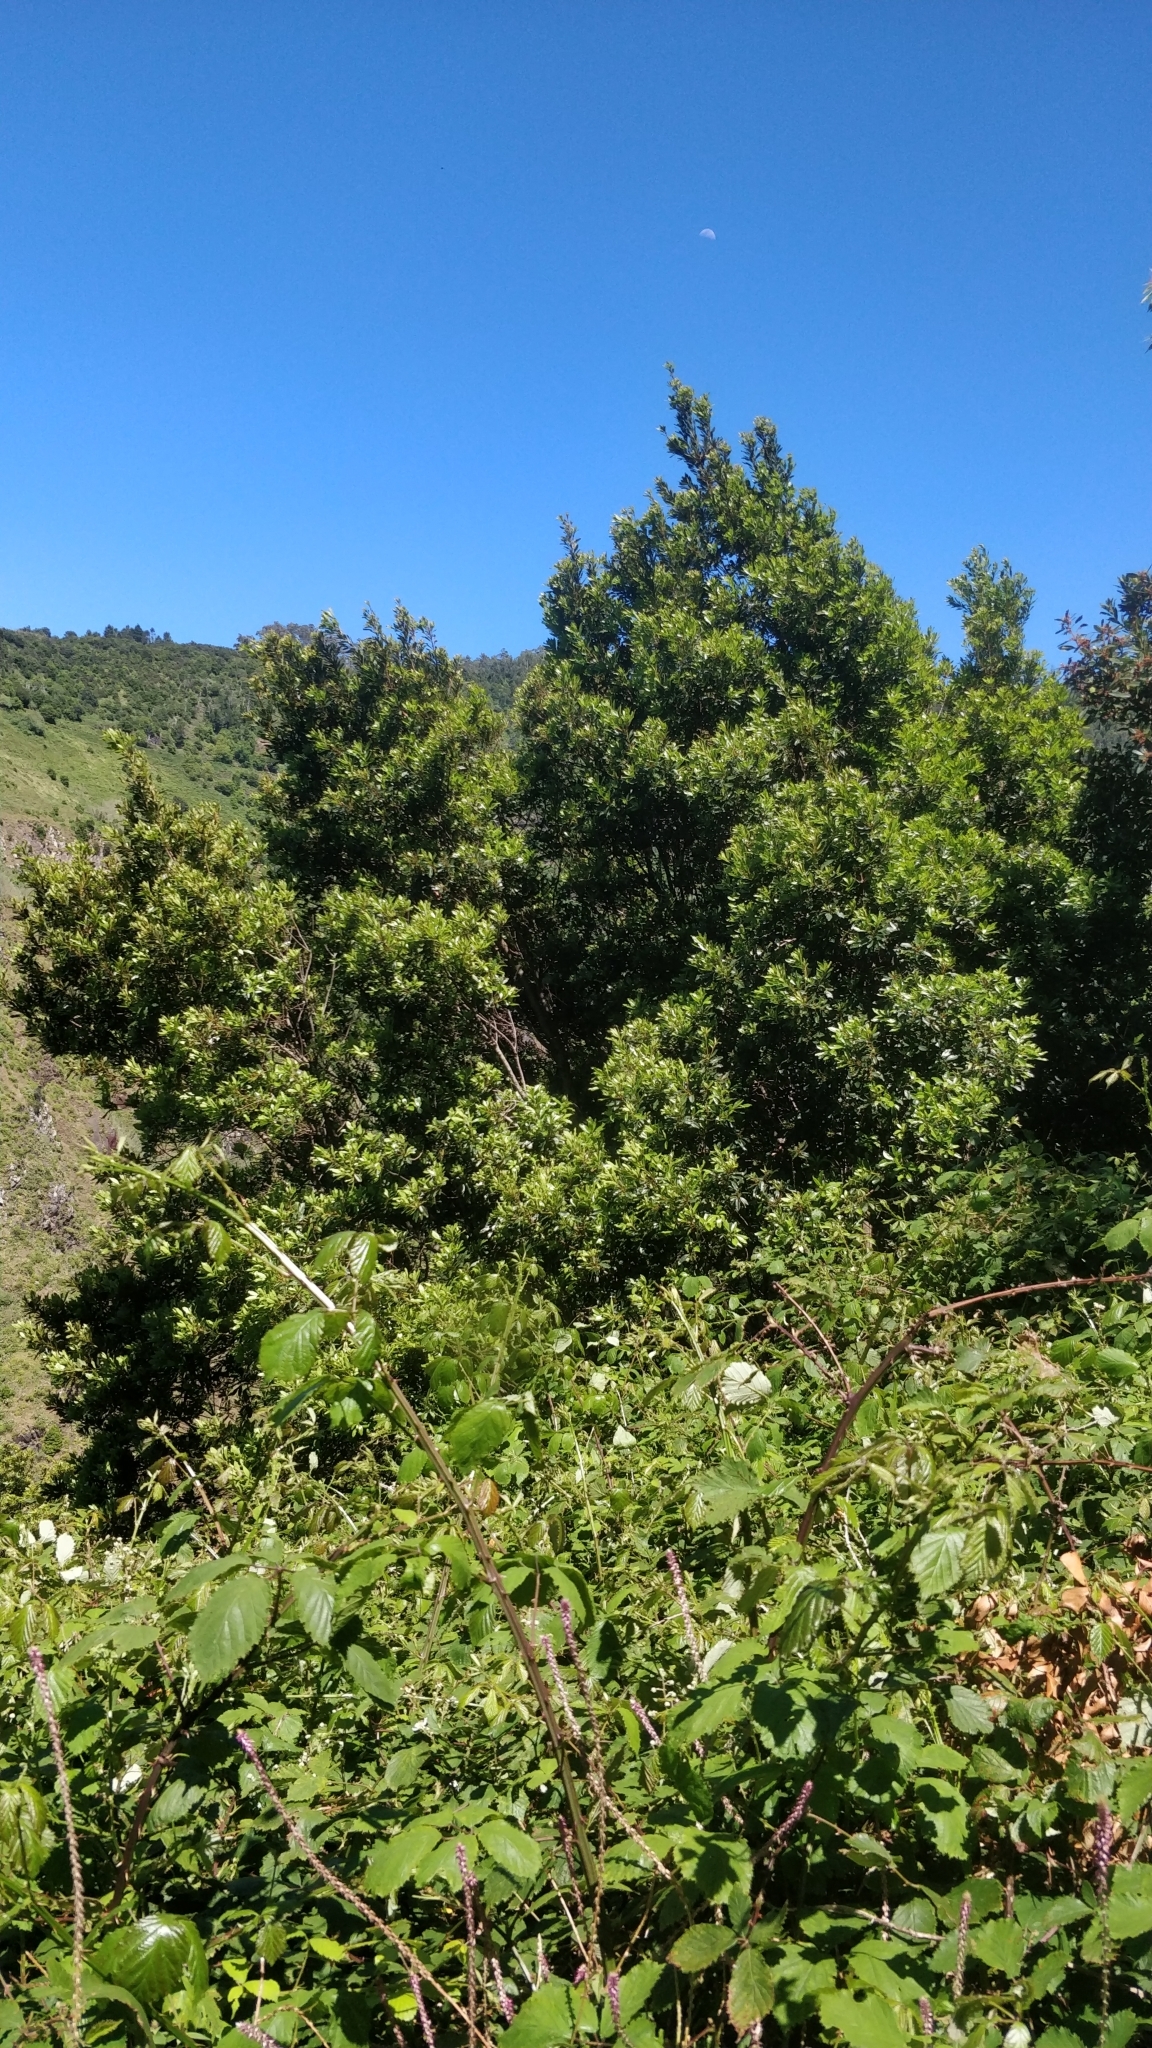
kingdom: Plantae
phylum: Tracheophyta
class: Magnoliopsida
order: Fagales
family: Myricaceae
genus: Morella
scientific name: Morella faya
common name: Firetree
